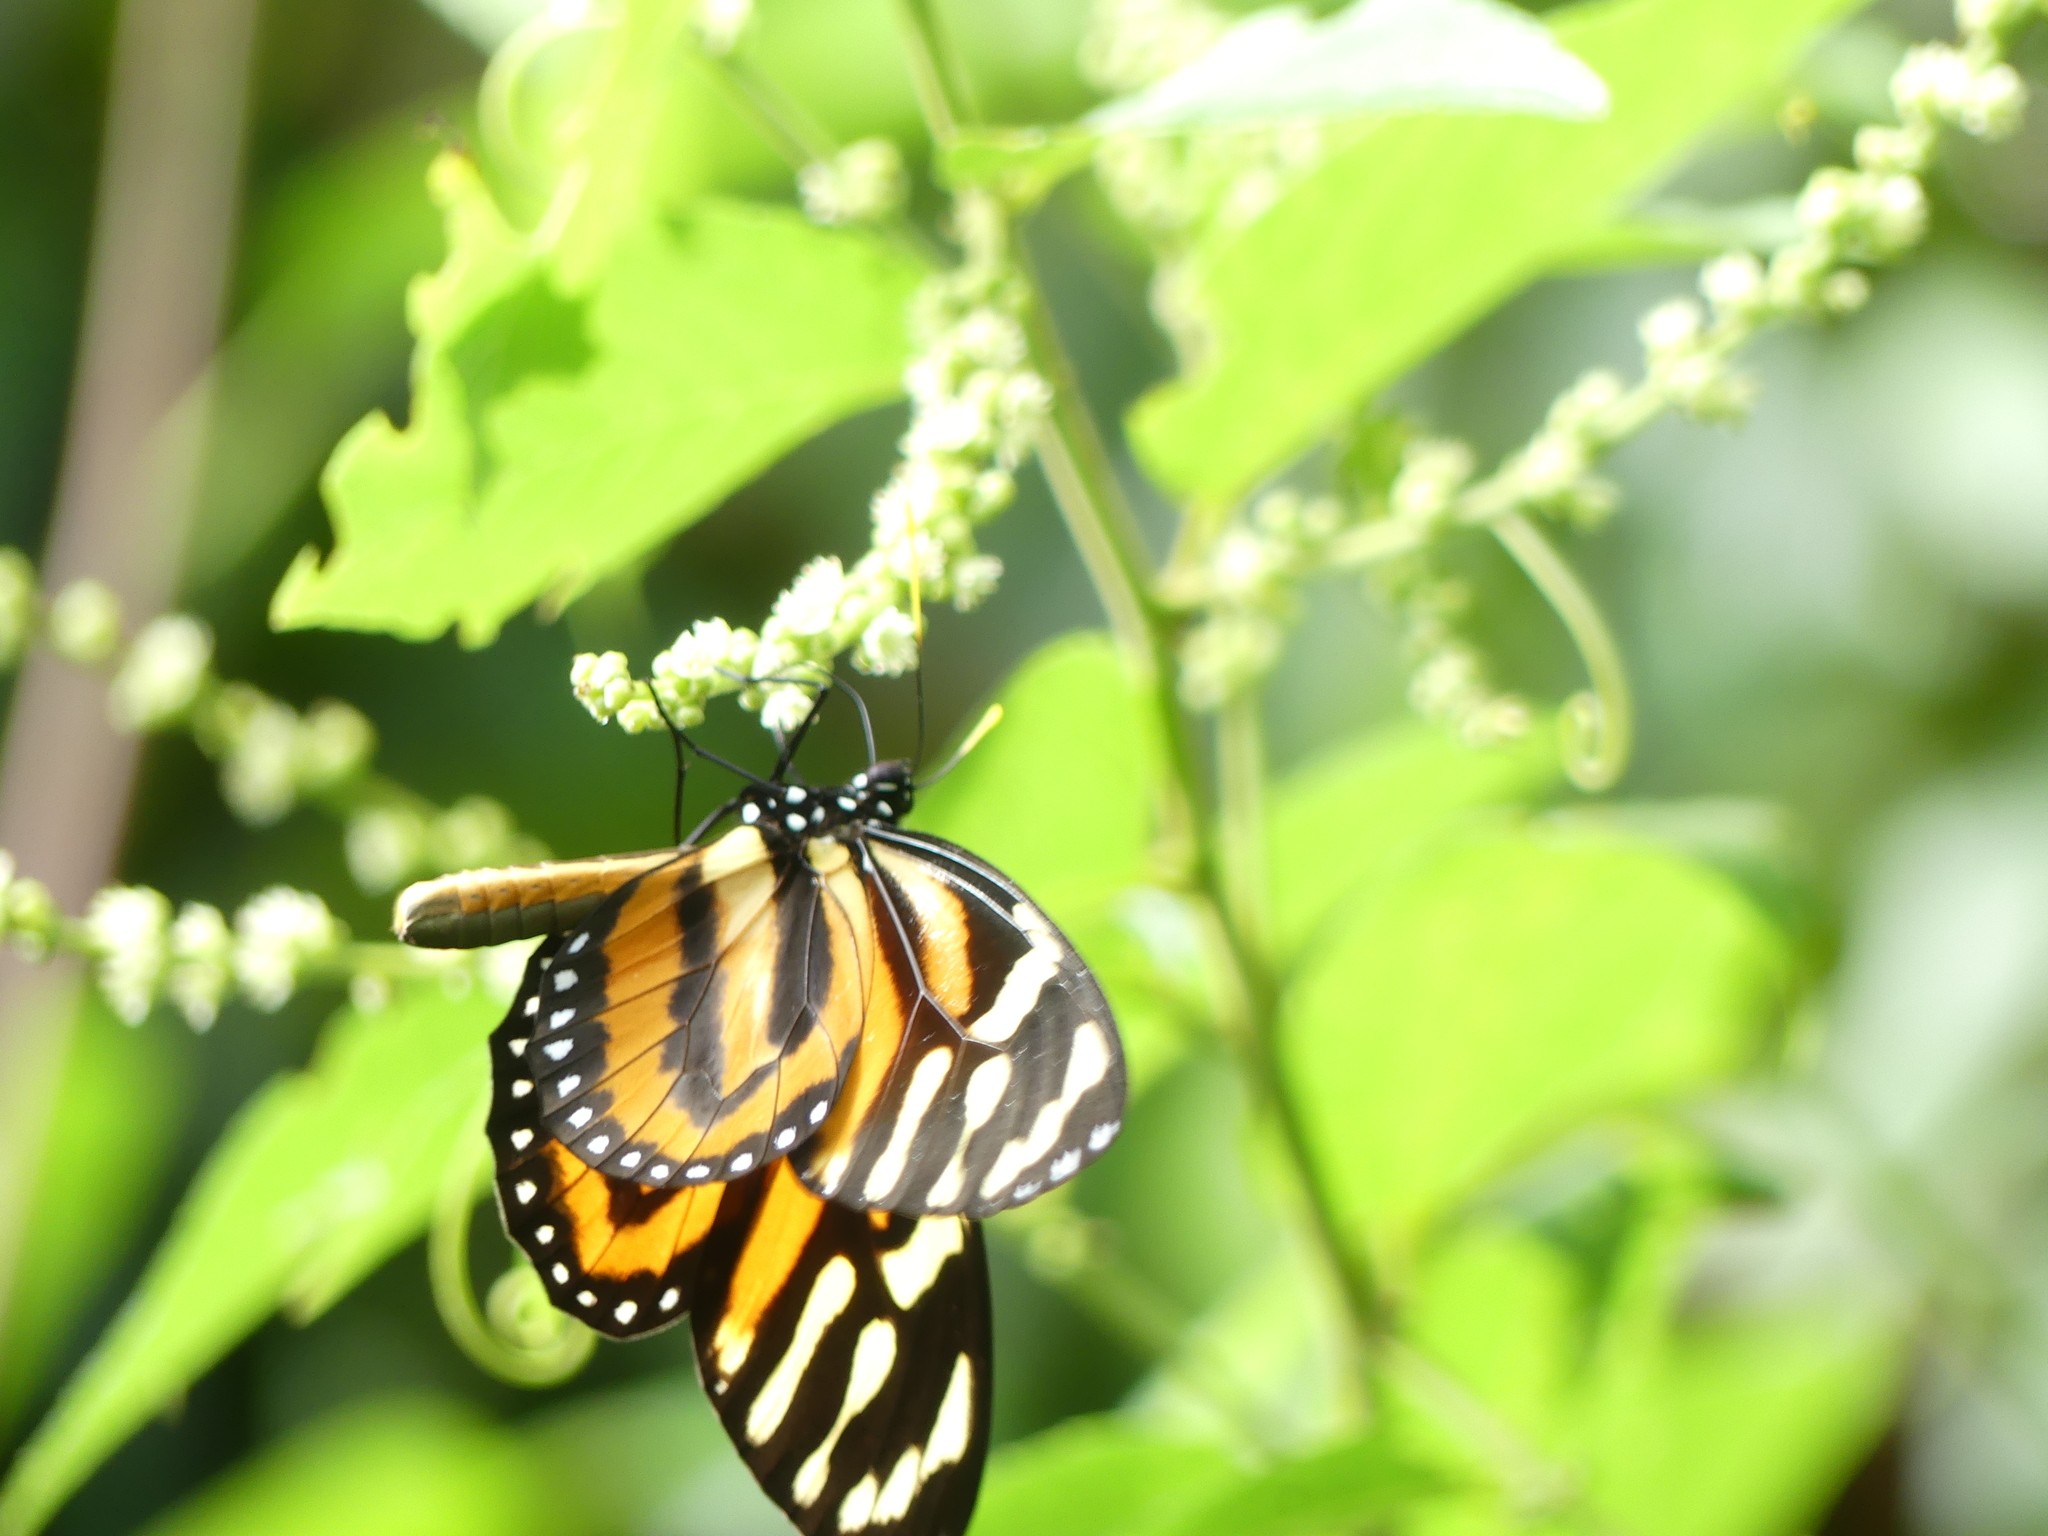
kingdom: Animalia
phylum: Arthropoda
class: Insecta
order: Lepidoptera
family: Nymphalidae
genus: Lycorea
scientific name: Lycorea cleobaea
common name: Tiger mimic-queen
